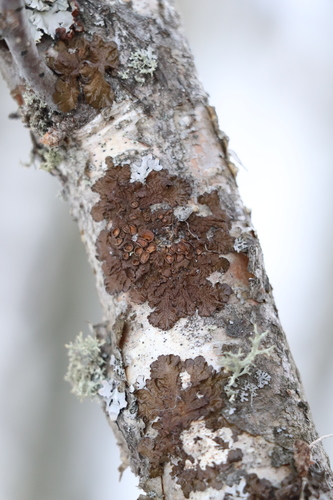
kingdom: Fungi
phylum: Ascomycota
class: Lecanoromycetes
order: Lecanorales
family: Parmeliaceae
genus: Melanohalea
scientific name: Melanohalea olivacea
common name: Spotted camouflage lichen
